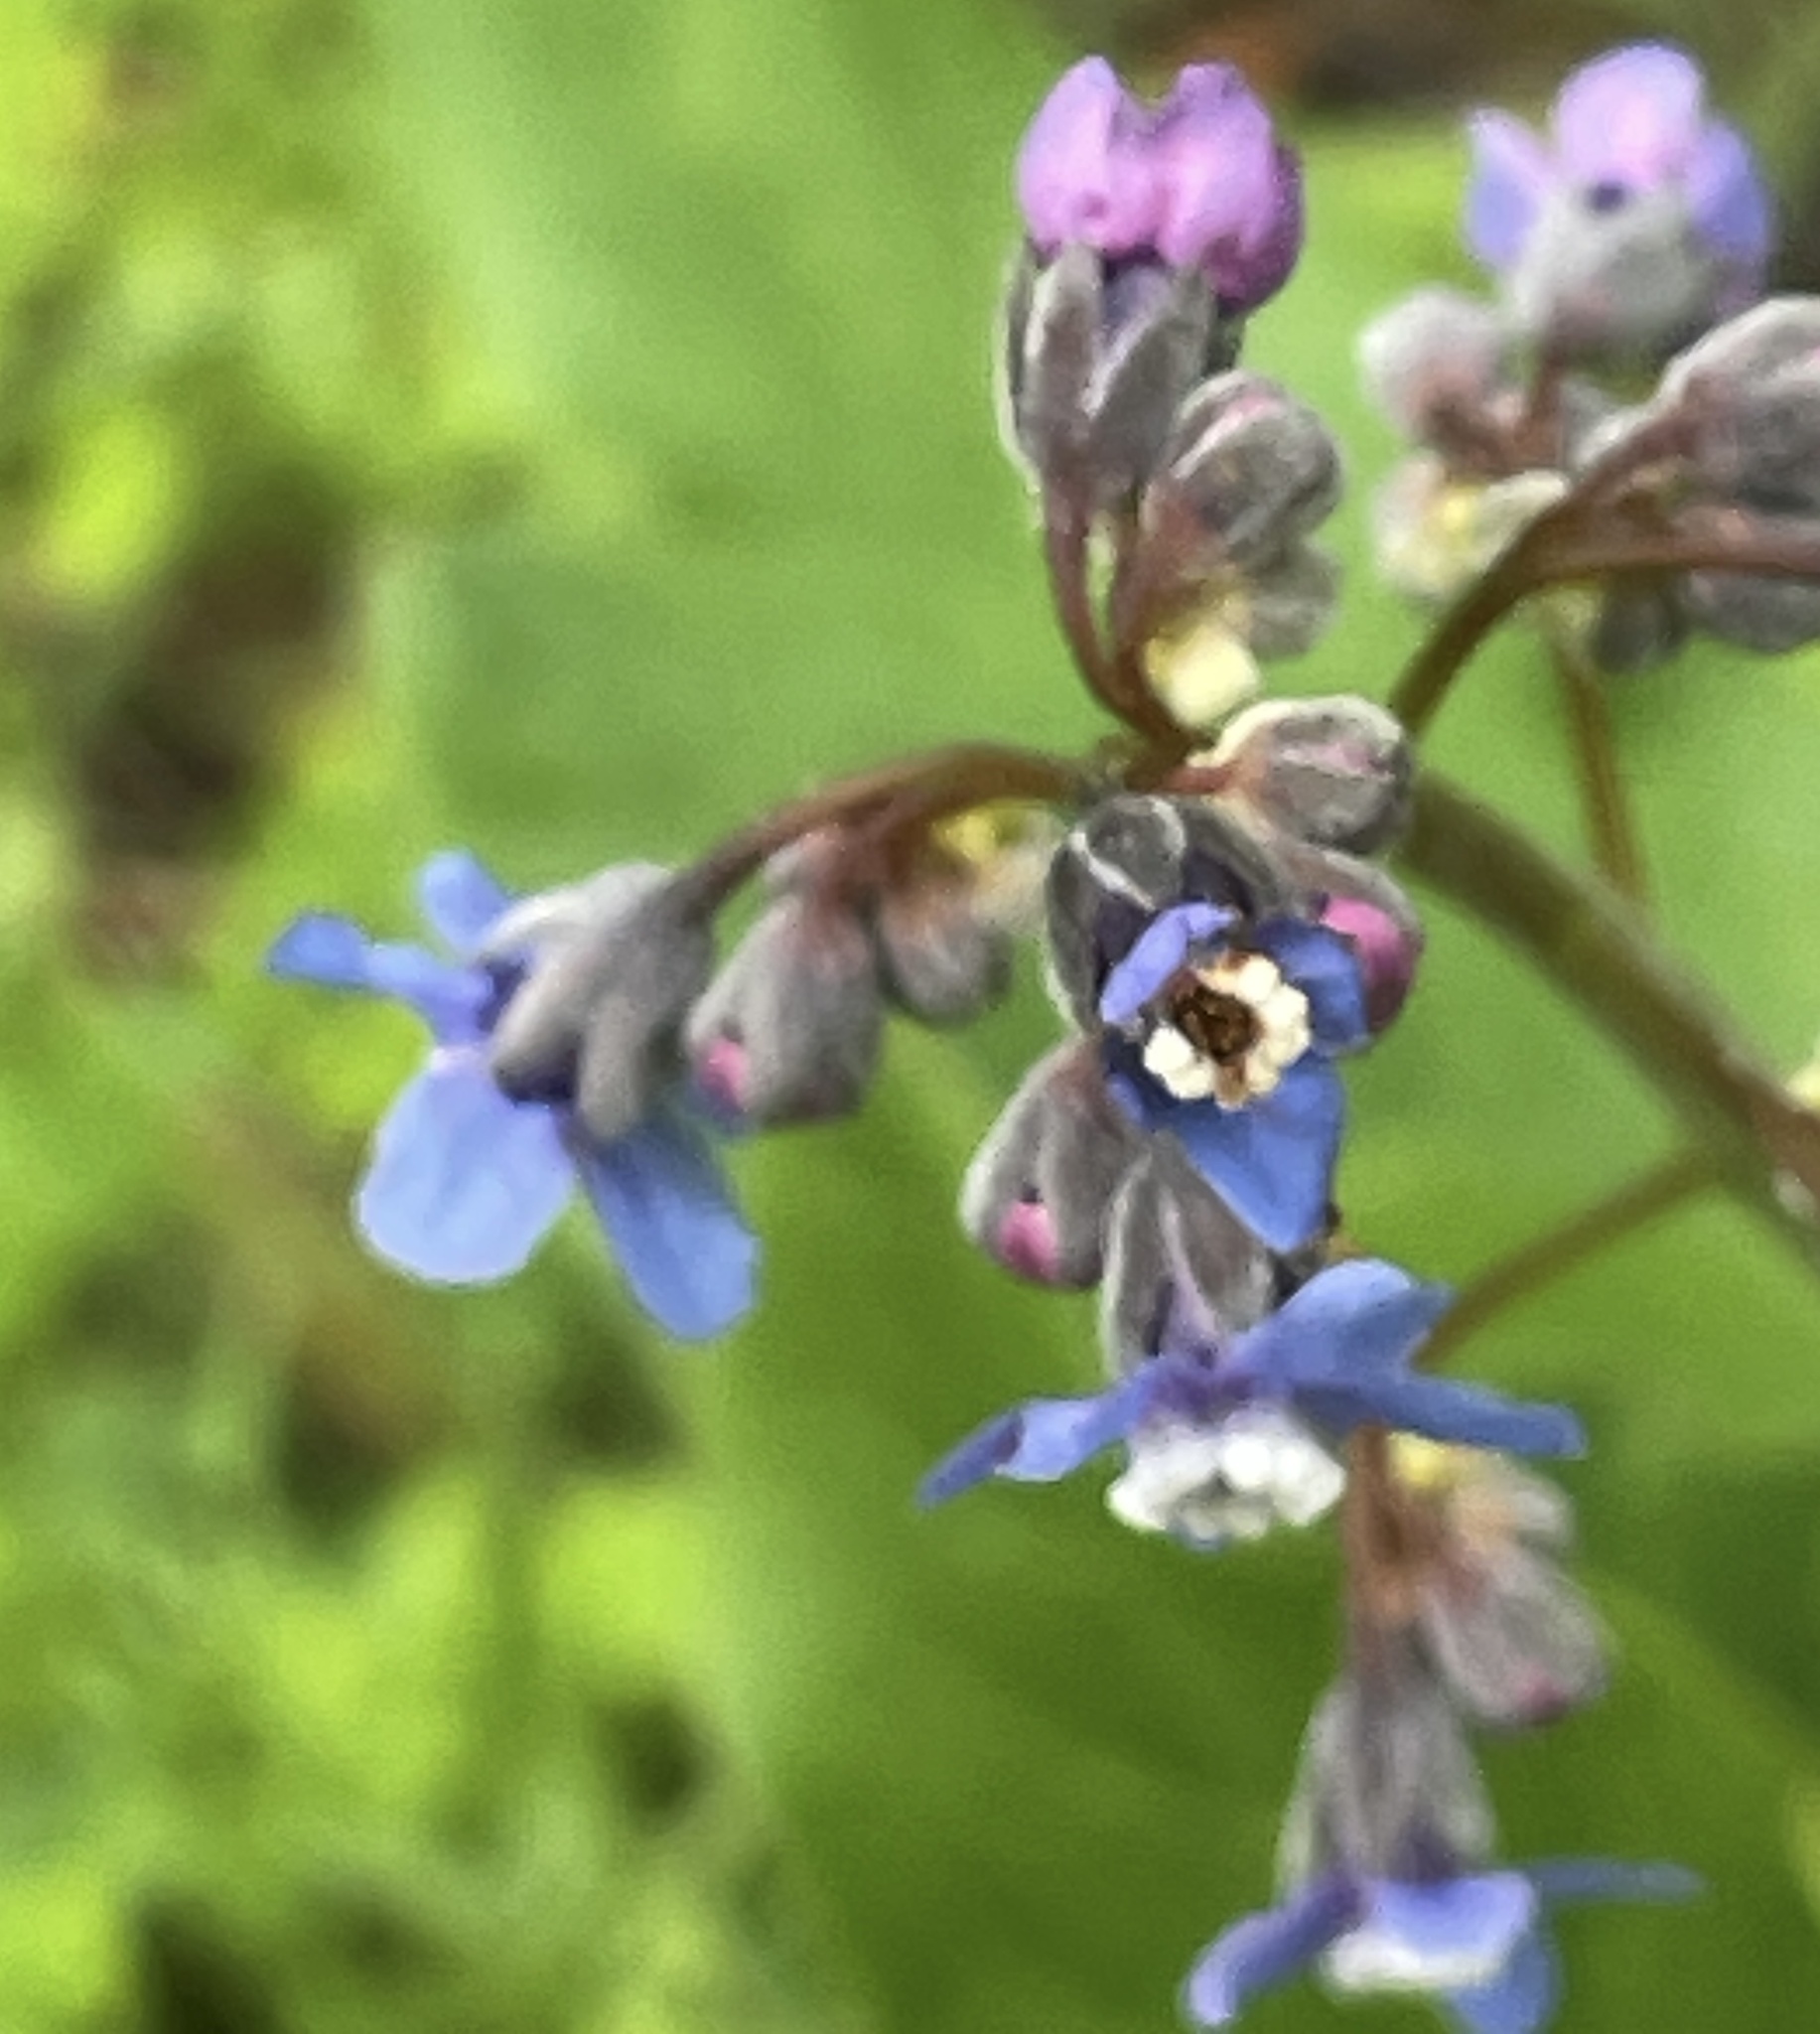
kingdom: Plantae
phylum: Tracheophyta
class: Magnoliopsida
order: Boraginales
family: Boraginaceae
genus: Adelinia
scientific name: Adelinia grande
